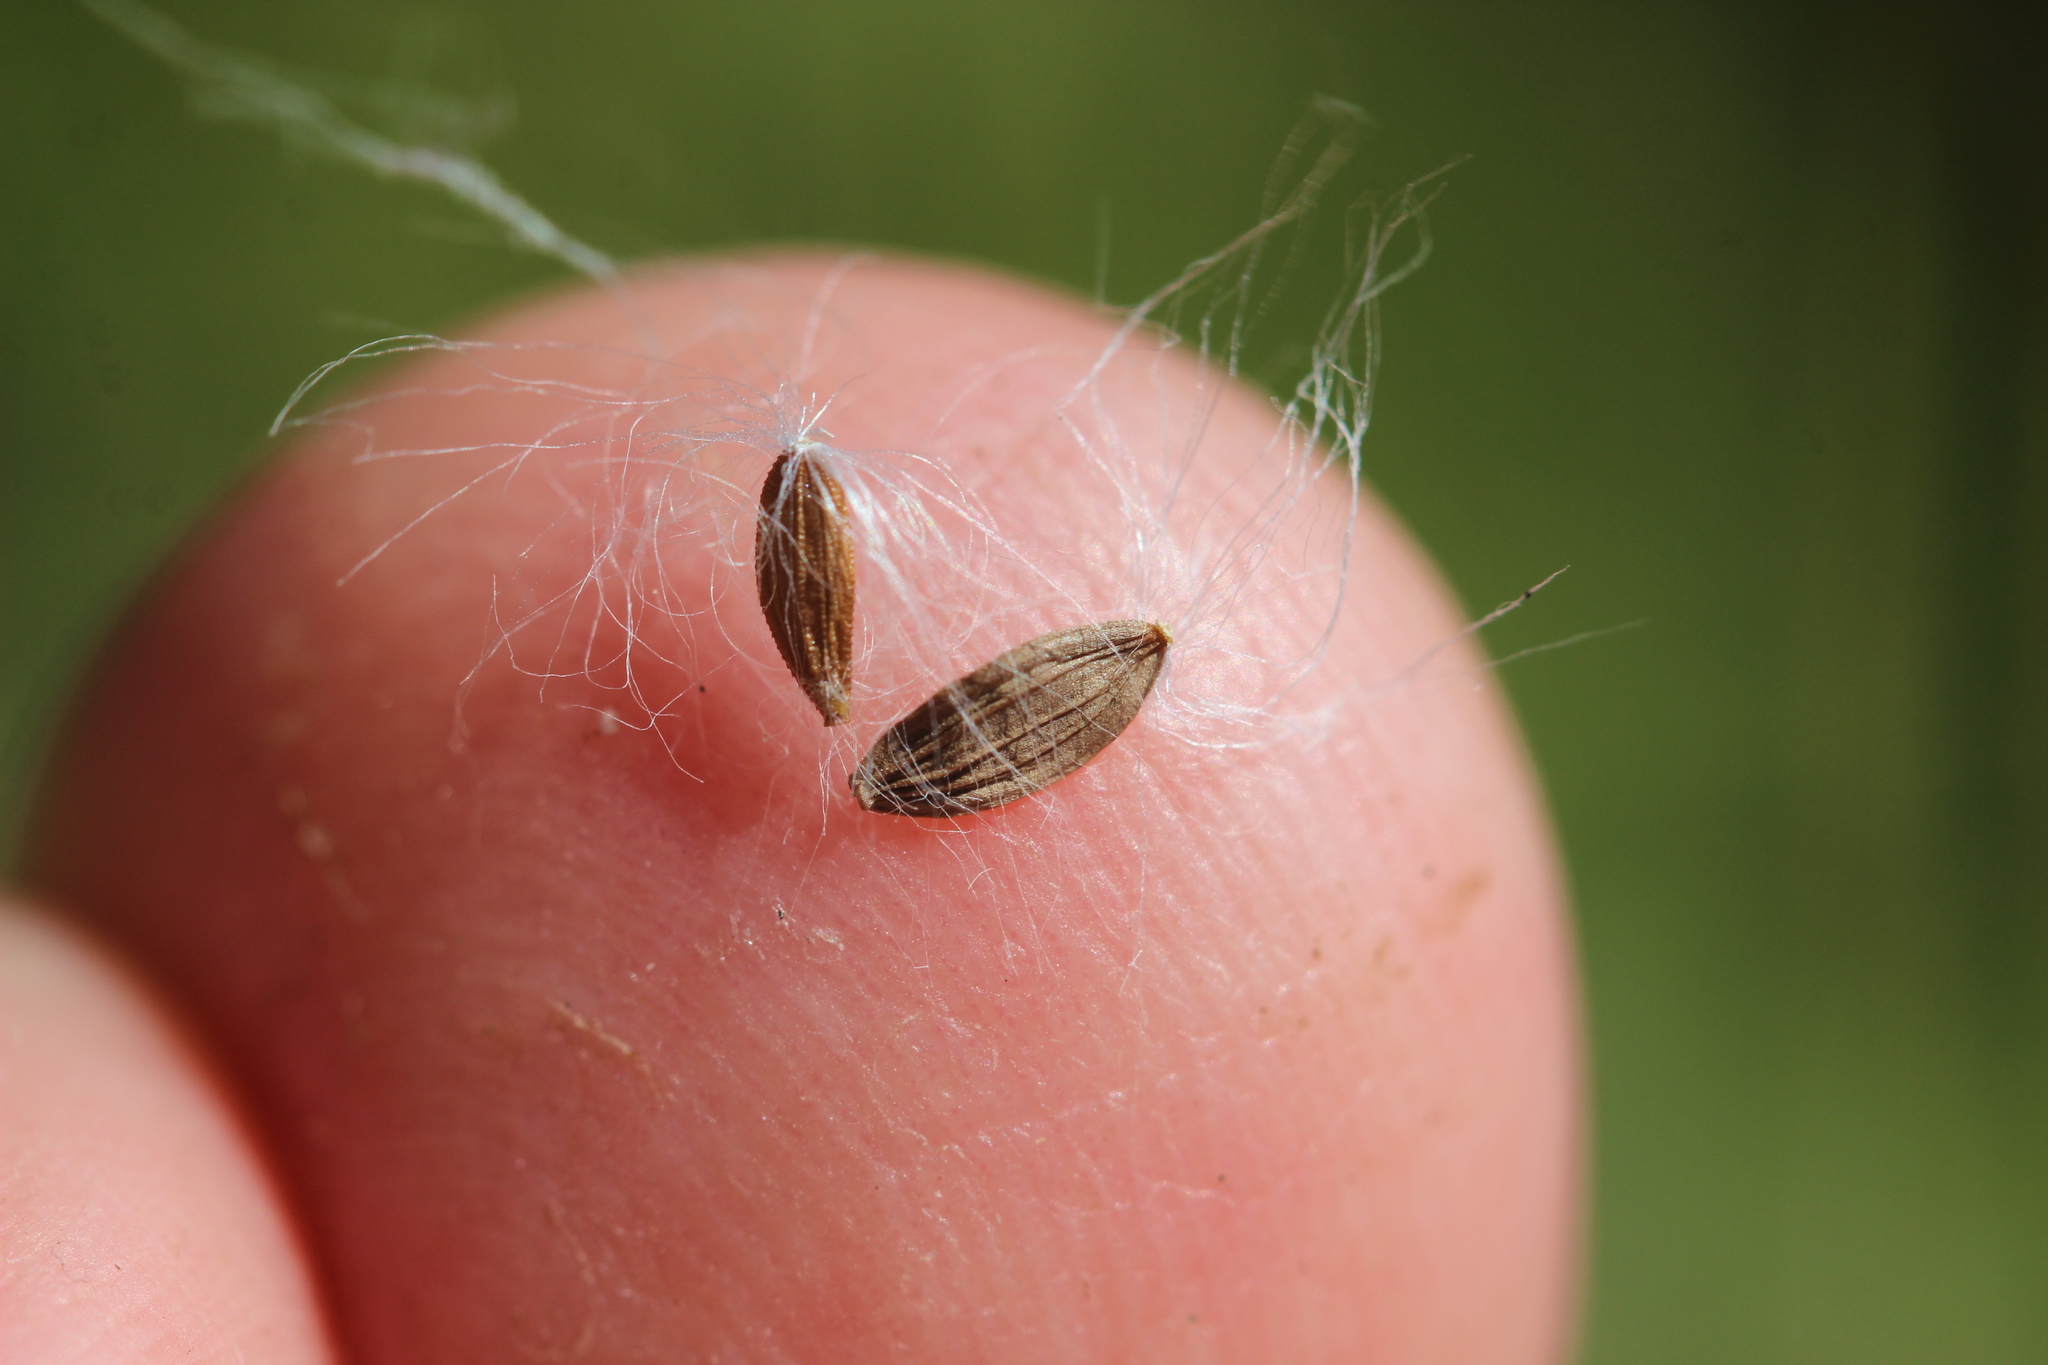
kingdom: Plantae
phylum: Tracheophyta
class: Magnoliopsida
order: Asterales
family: Asteraceae
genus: Sonchus
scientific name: Sonchus kirkii
